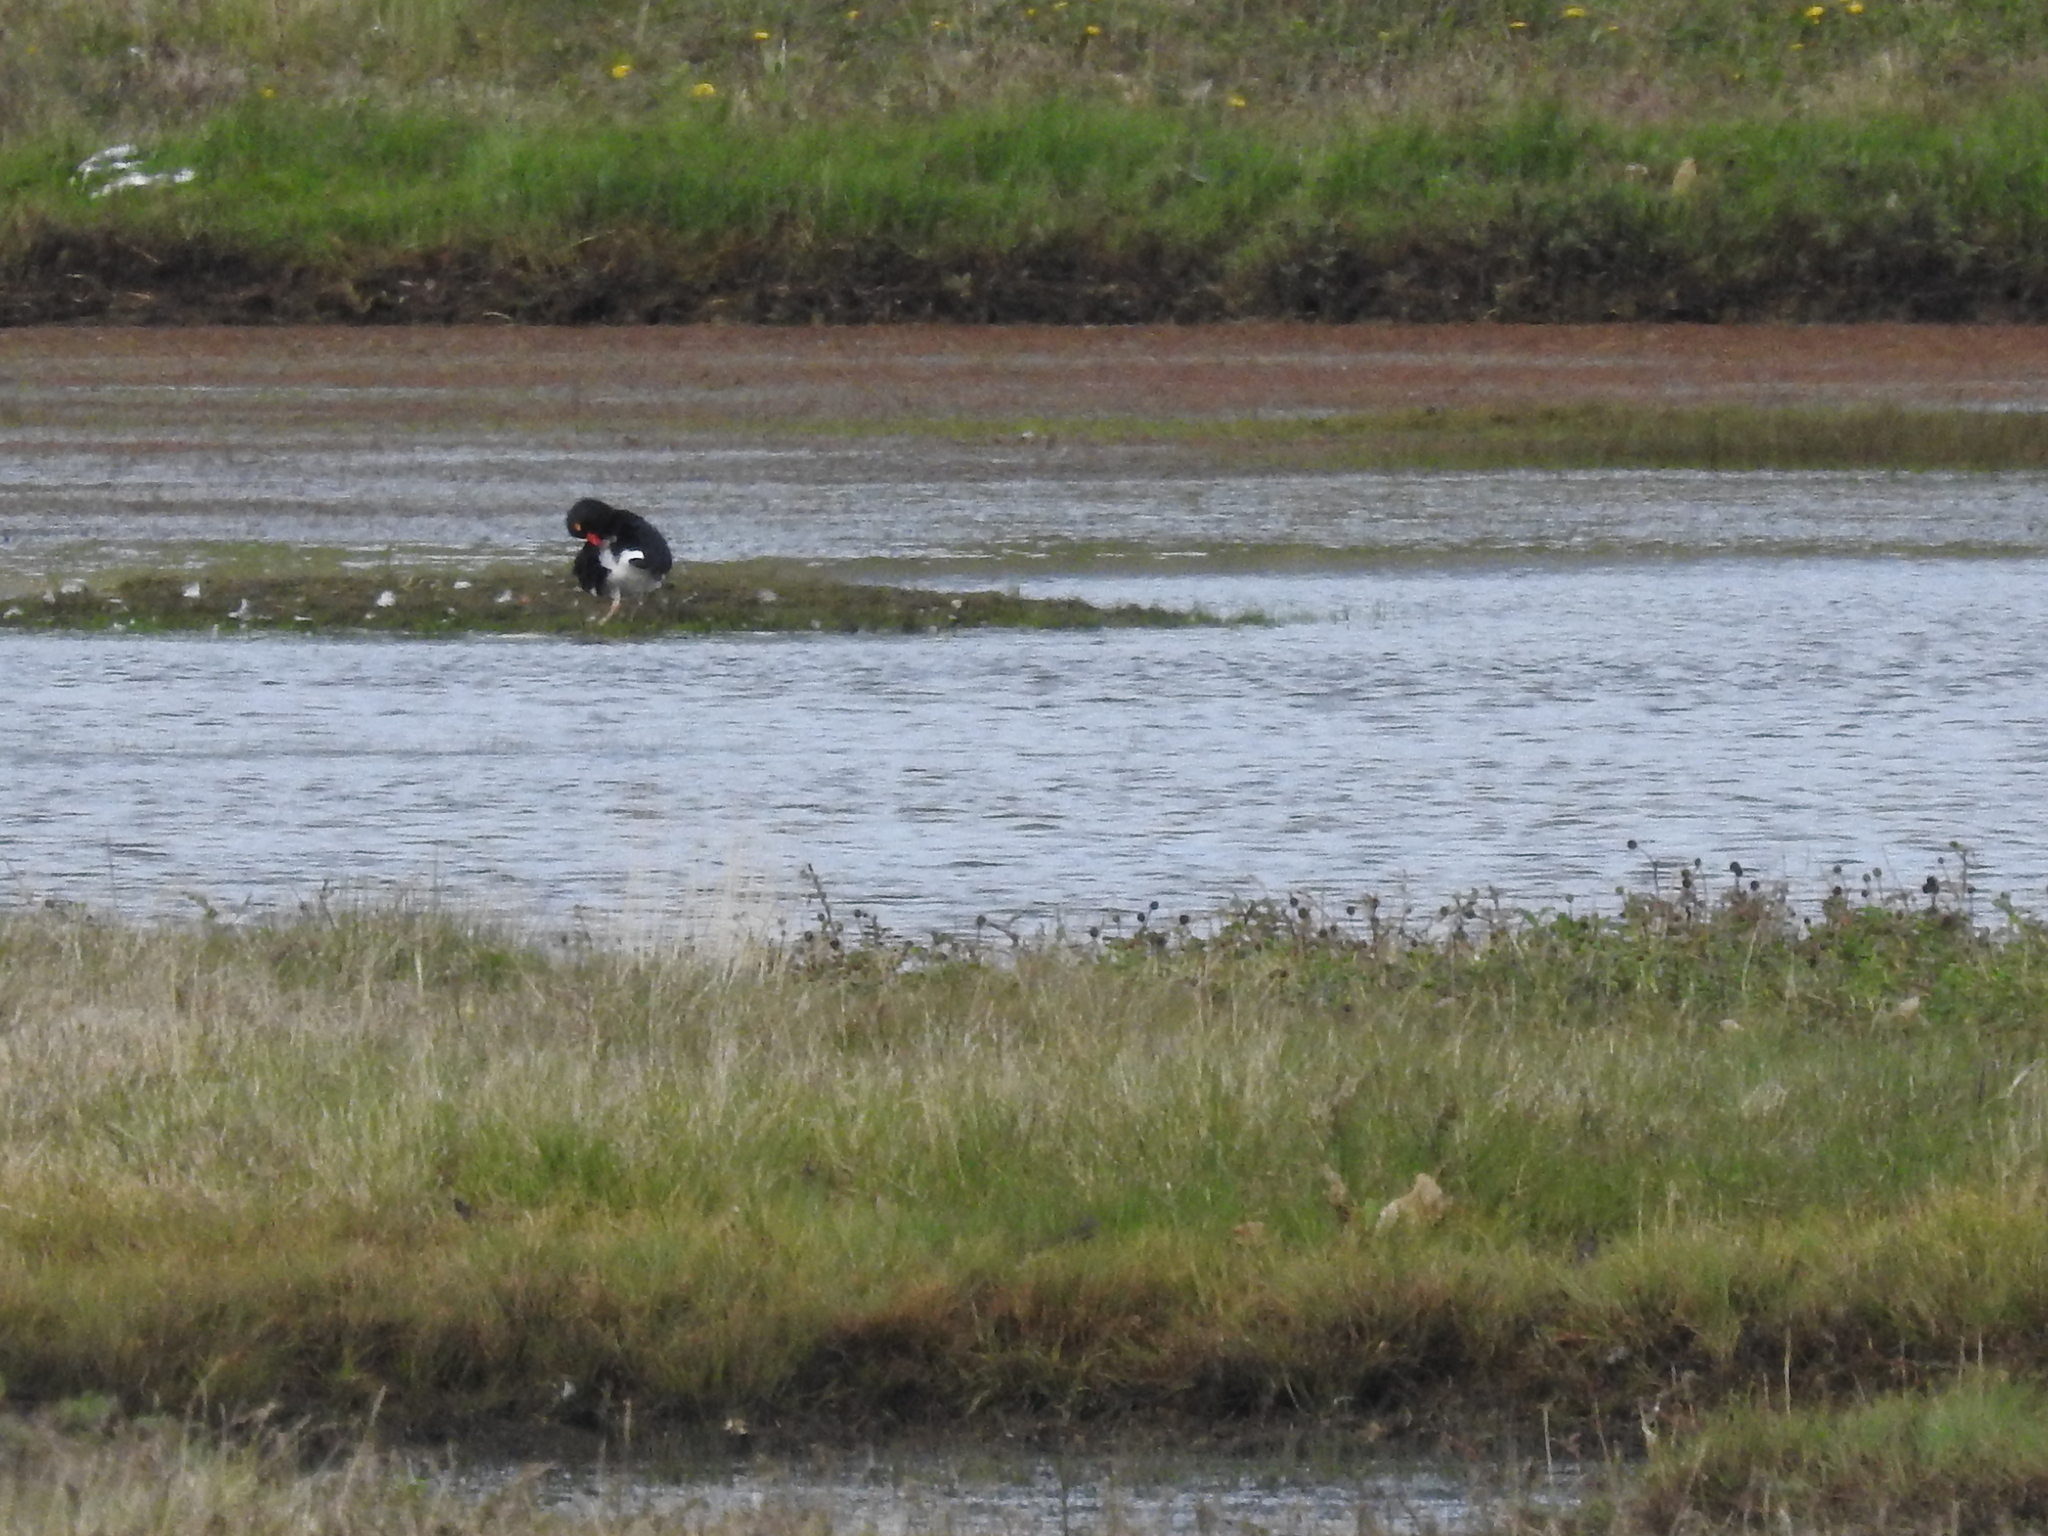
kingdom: Animalia
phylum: Chordata
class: Aves
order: Charadriiformes
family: Haematopodidae
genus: Haematopus
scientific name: Haematopus leucopodus
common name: Magellanic oystercatcher
